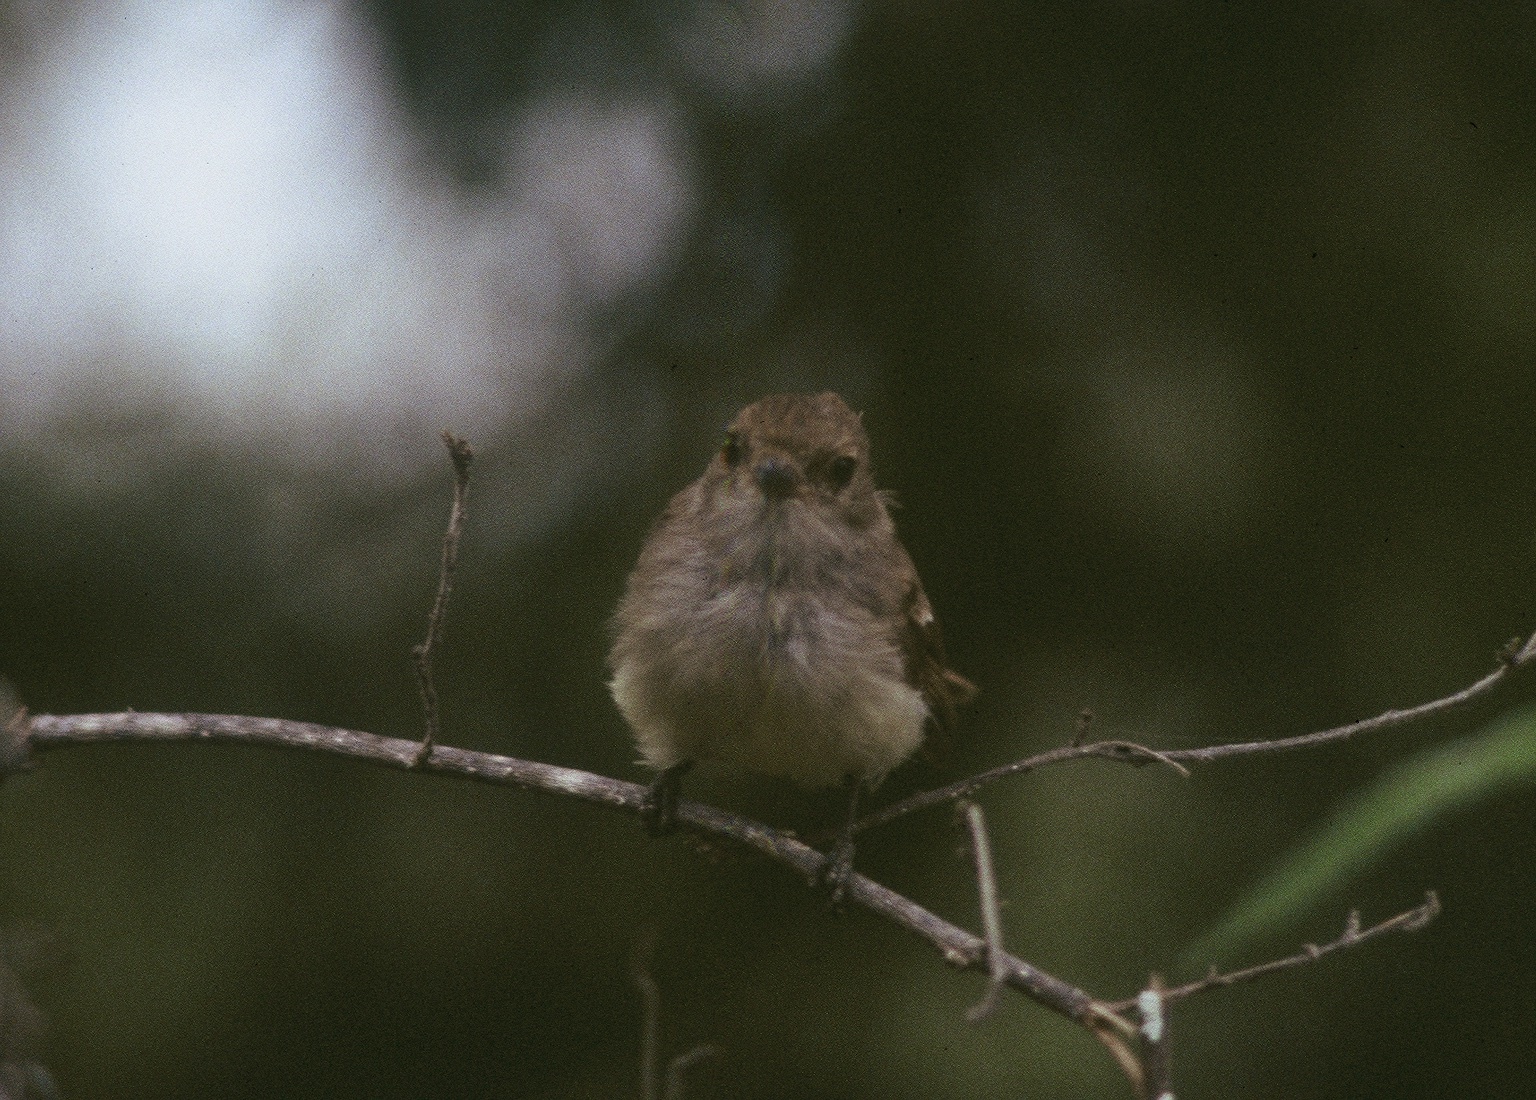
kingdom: Animalia
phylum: Chordata
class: Aves
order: Passeriformes
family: Tyrannidae
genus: Myiarchus
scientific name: Myiarchus magnirostris
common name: Galapagos flycatcher
